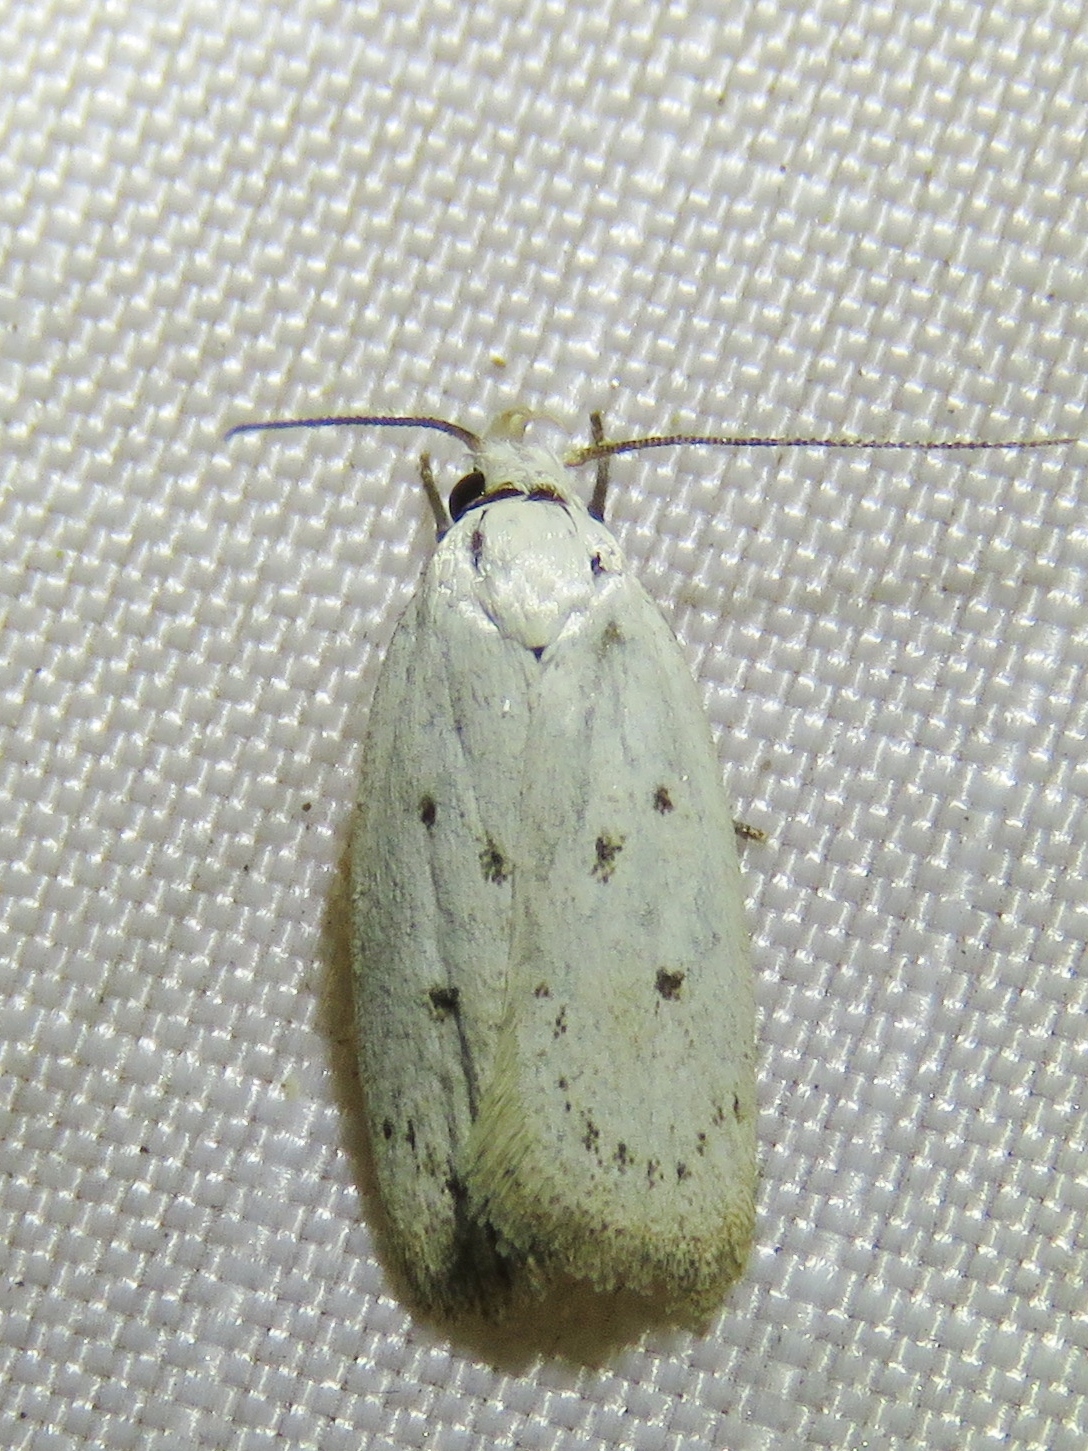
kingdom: Animalia
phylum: Arthropoda
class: Insecta
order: Lepidoptera
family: Oecophoridae
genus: Inga
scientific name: Inga cretacea
